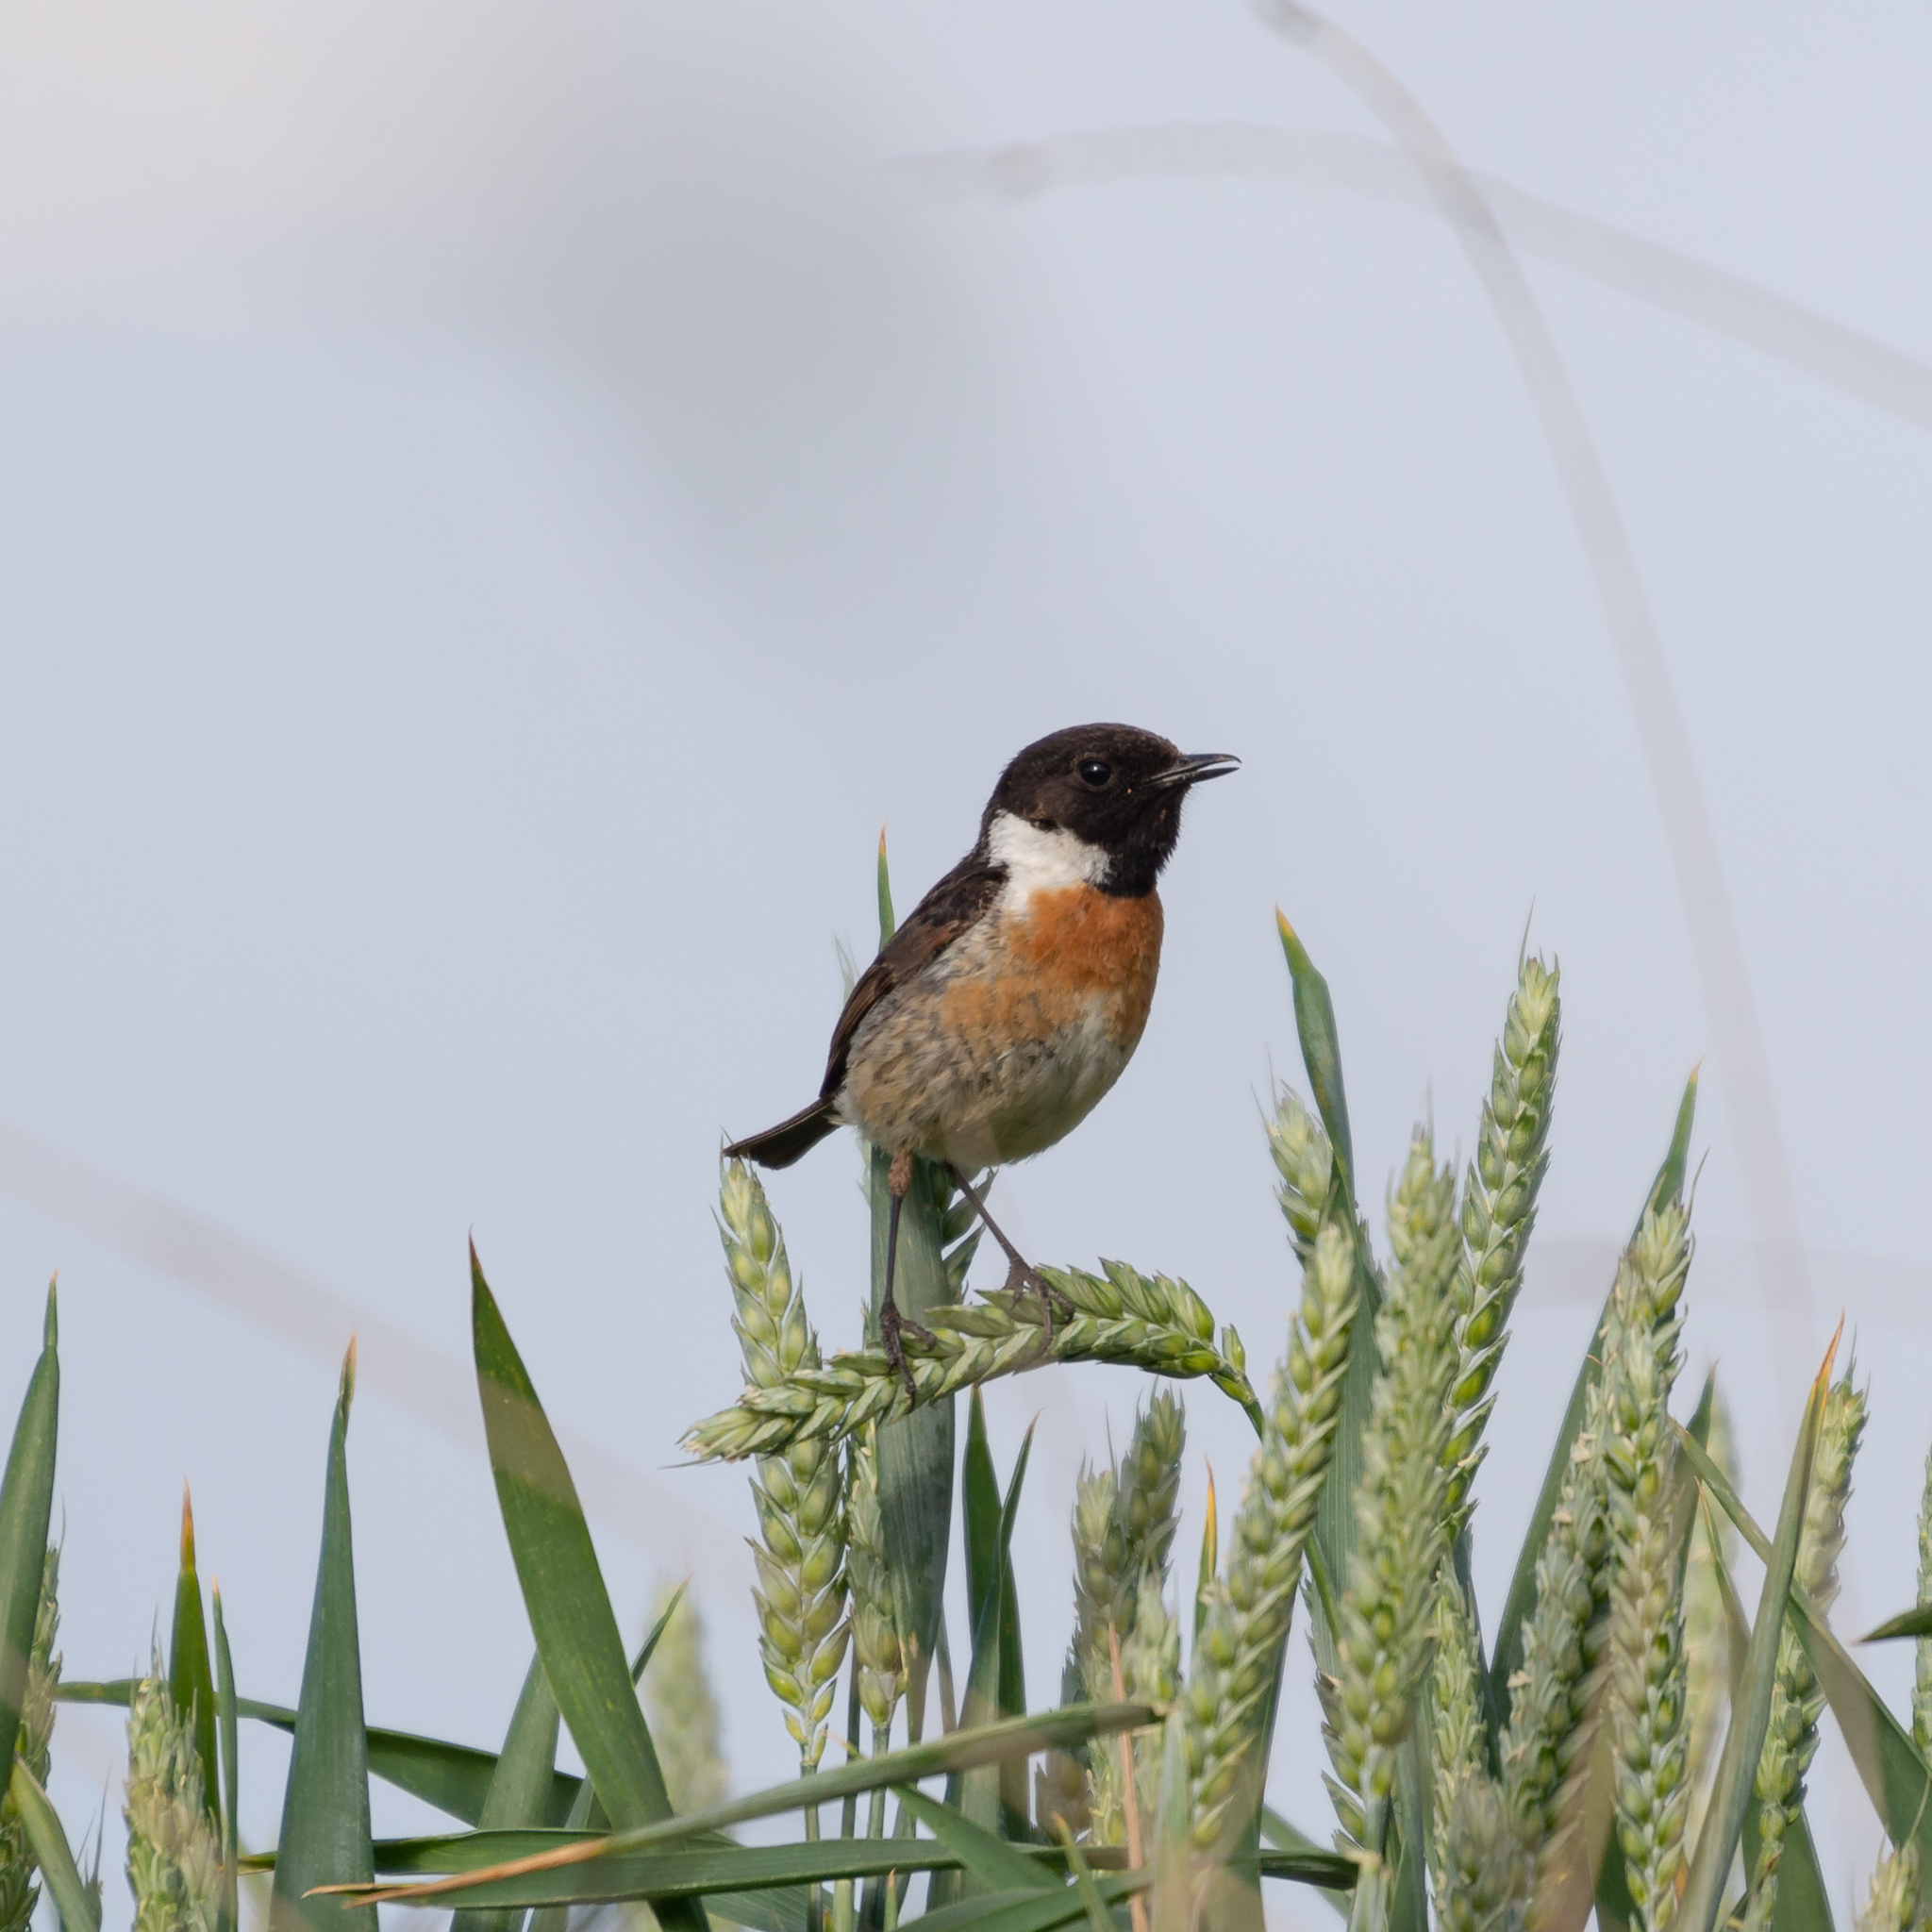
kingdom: Animalia
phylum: Chordata
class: Aves
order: Passeriformes
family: Muscicapidae
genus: Saxicola
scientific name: Saxicola rubicola
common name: European stonechat
